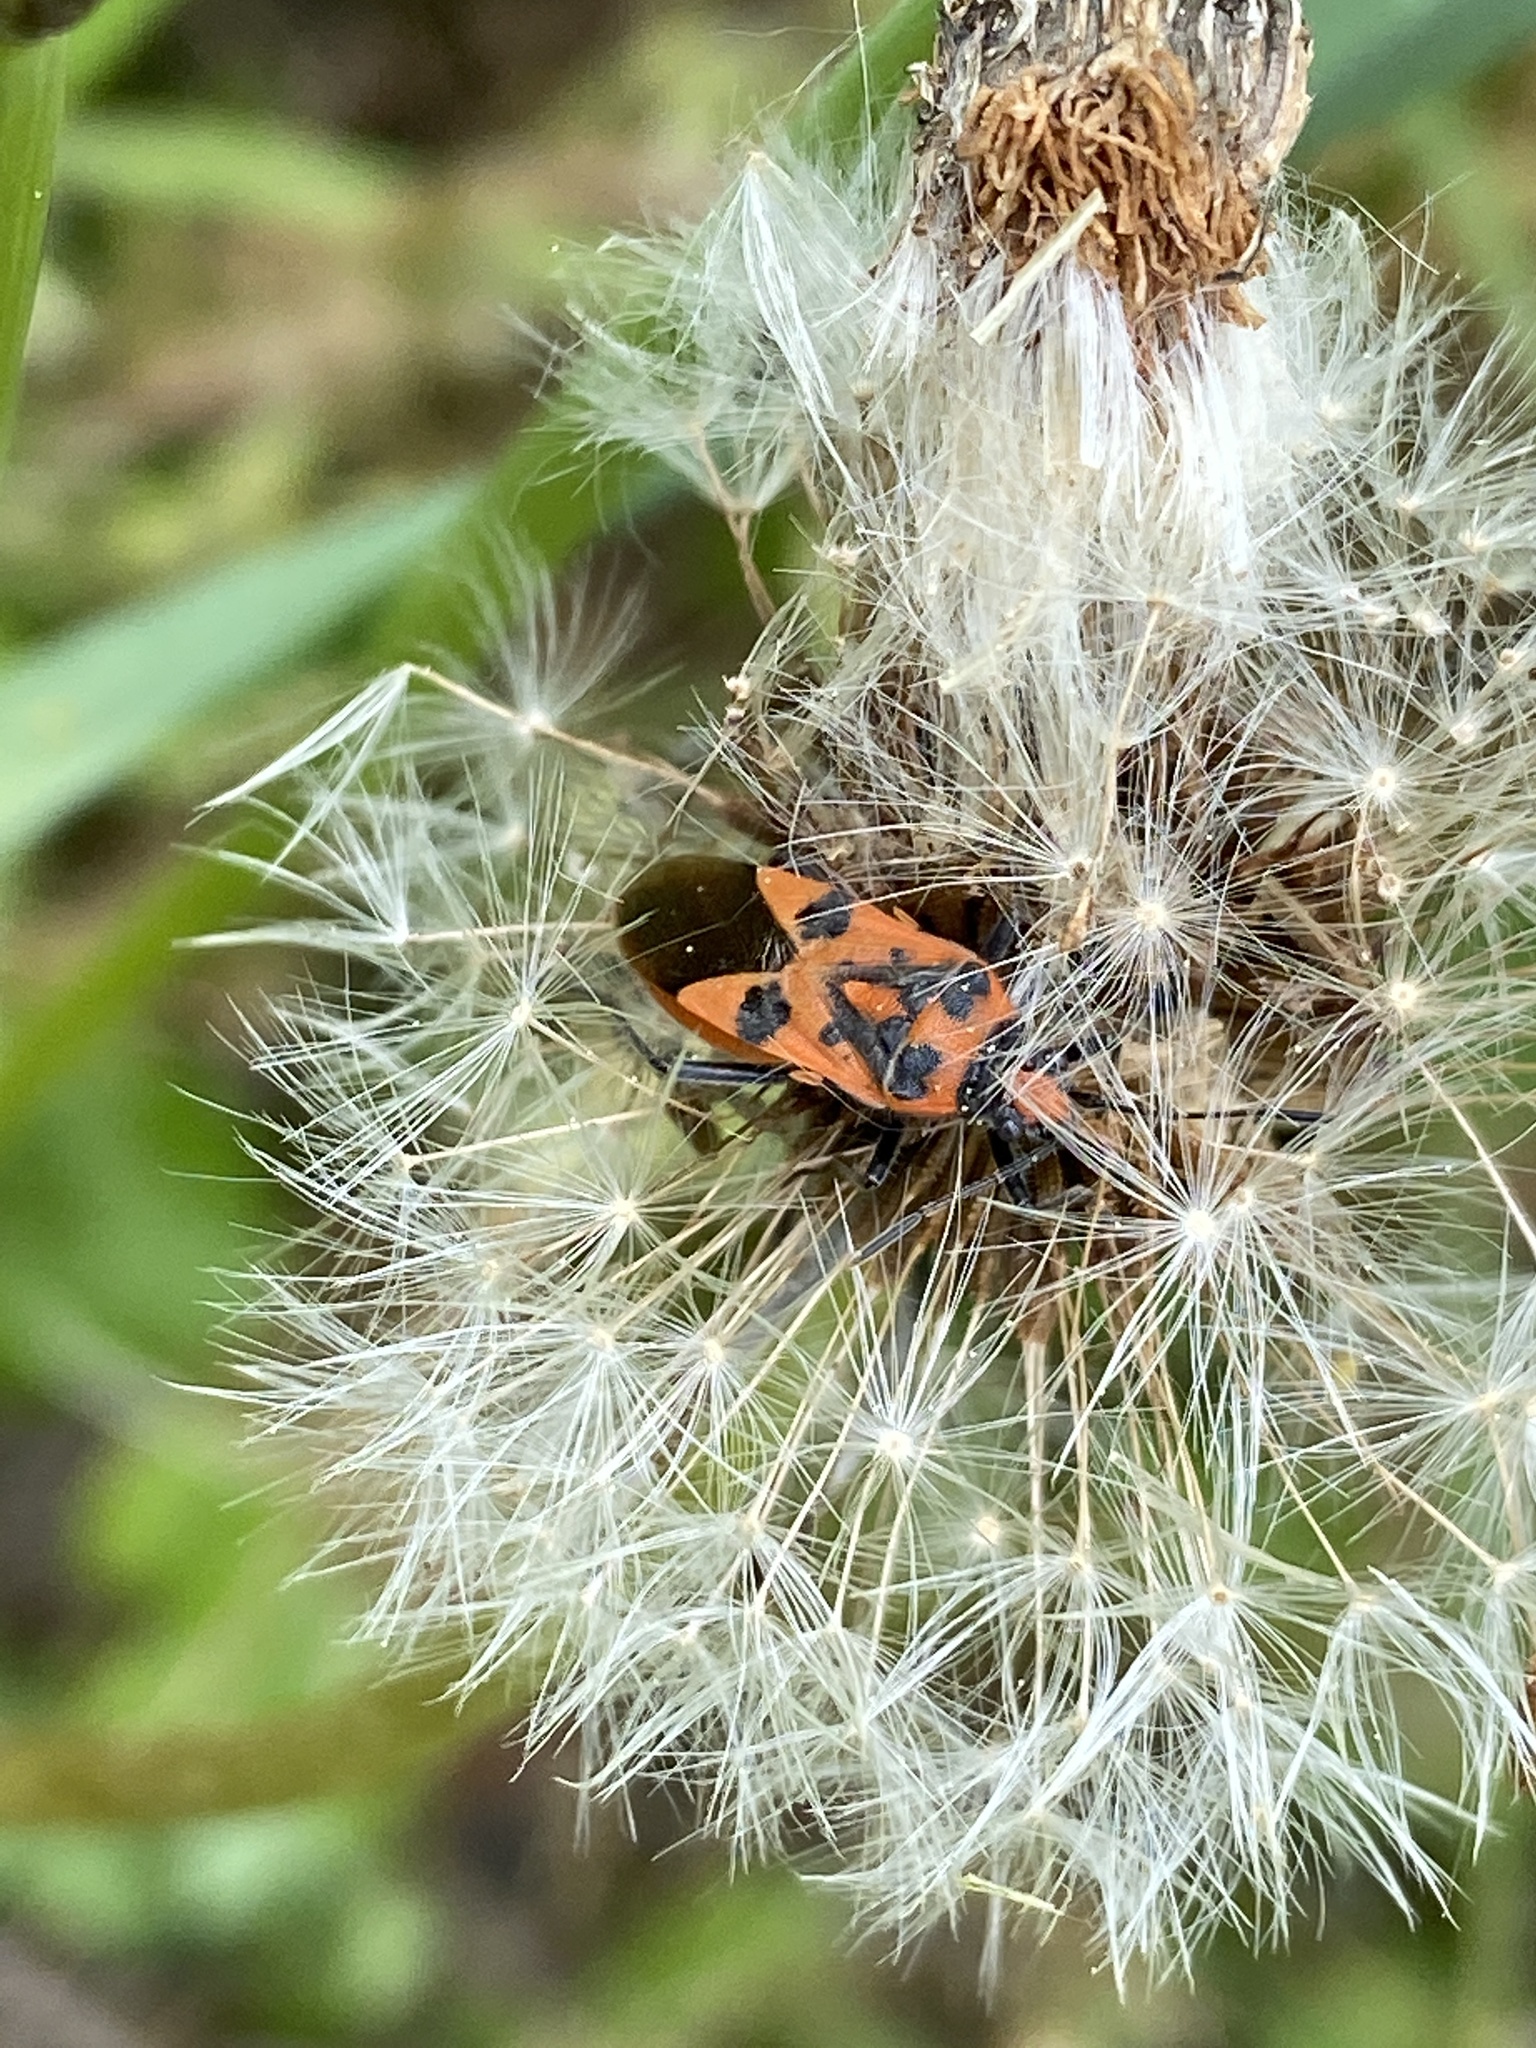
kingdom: Animalia
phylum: Arthropoda
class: Insecta
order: Hemiptera
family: Rhopalidae
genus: Corizus
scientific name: Corizus hyoscyami
